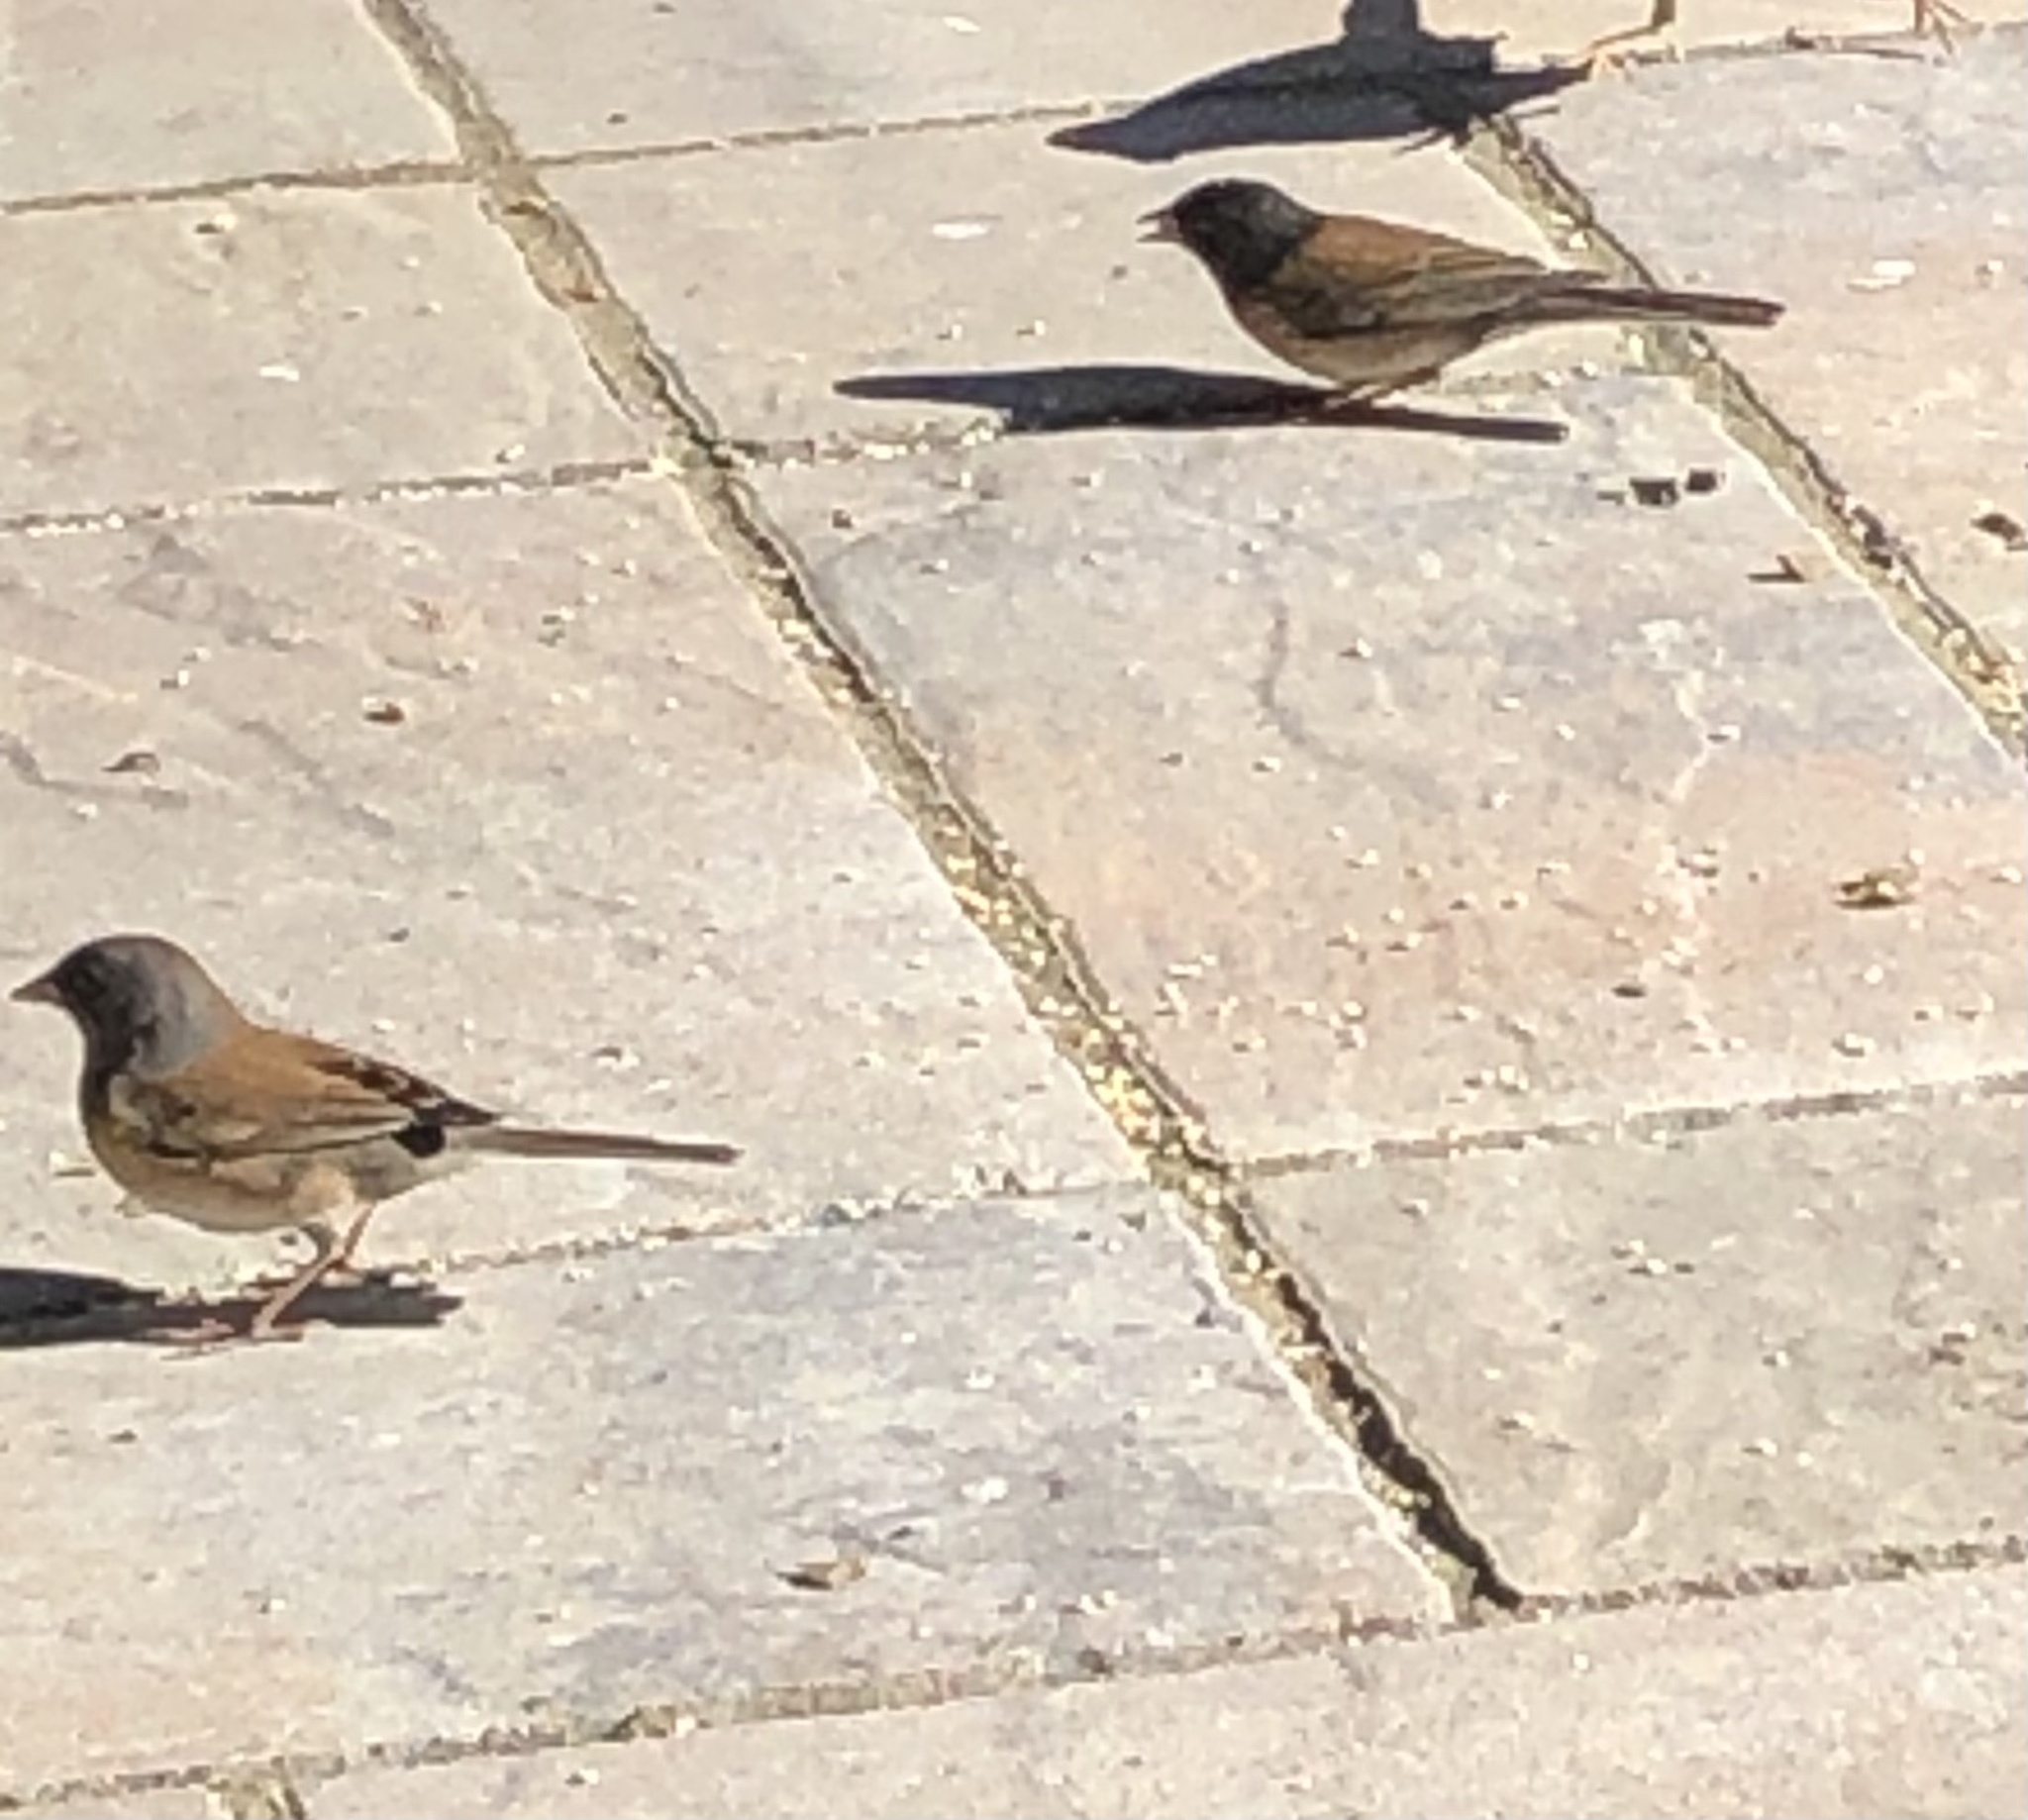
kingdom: Animalia
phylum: Chordata
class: Aves
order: Passeriformes
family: Passerellidae
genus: Junco
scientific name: Junco hyemalis
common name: Dark-eyed junco
